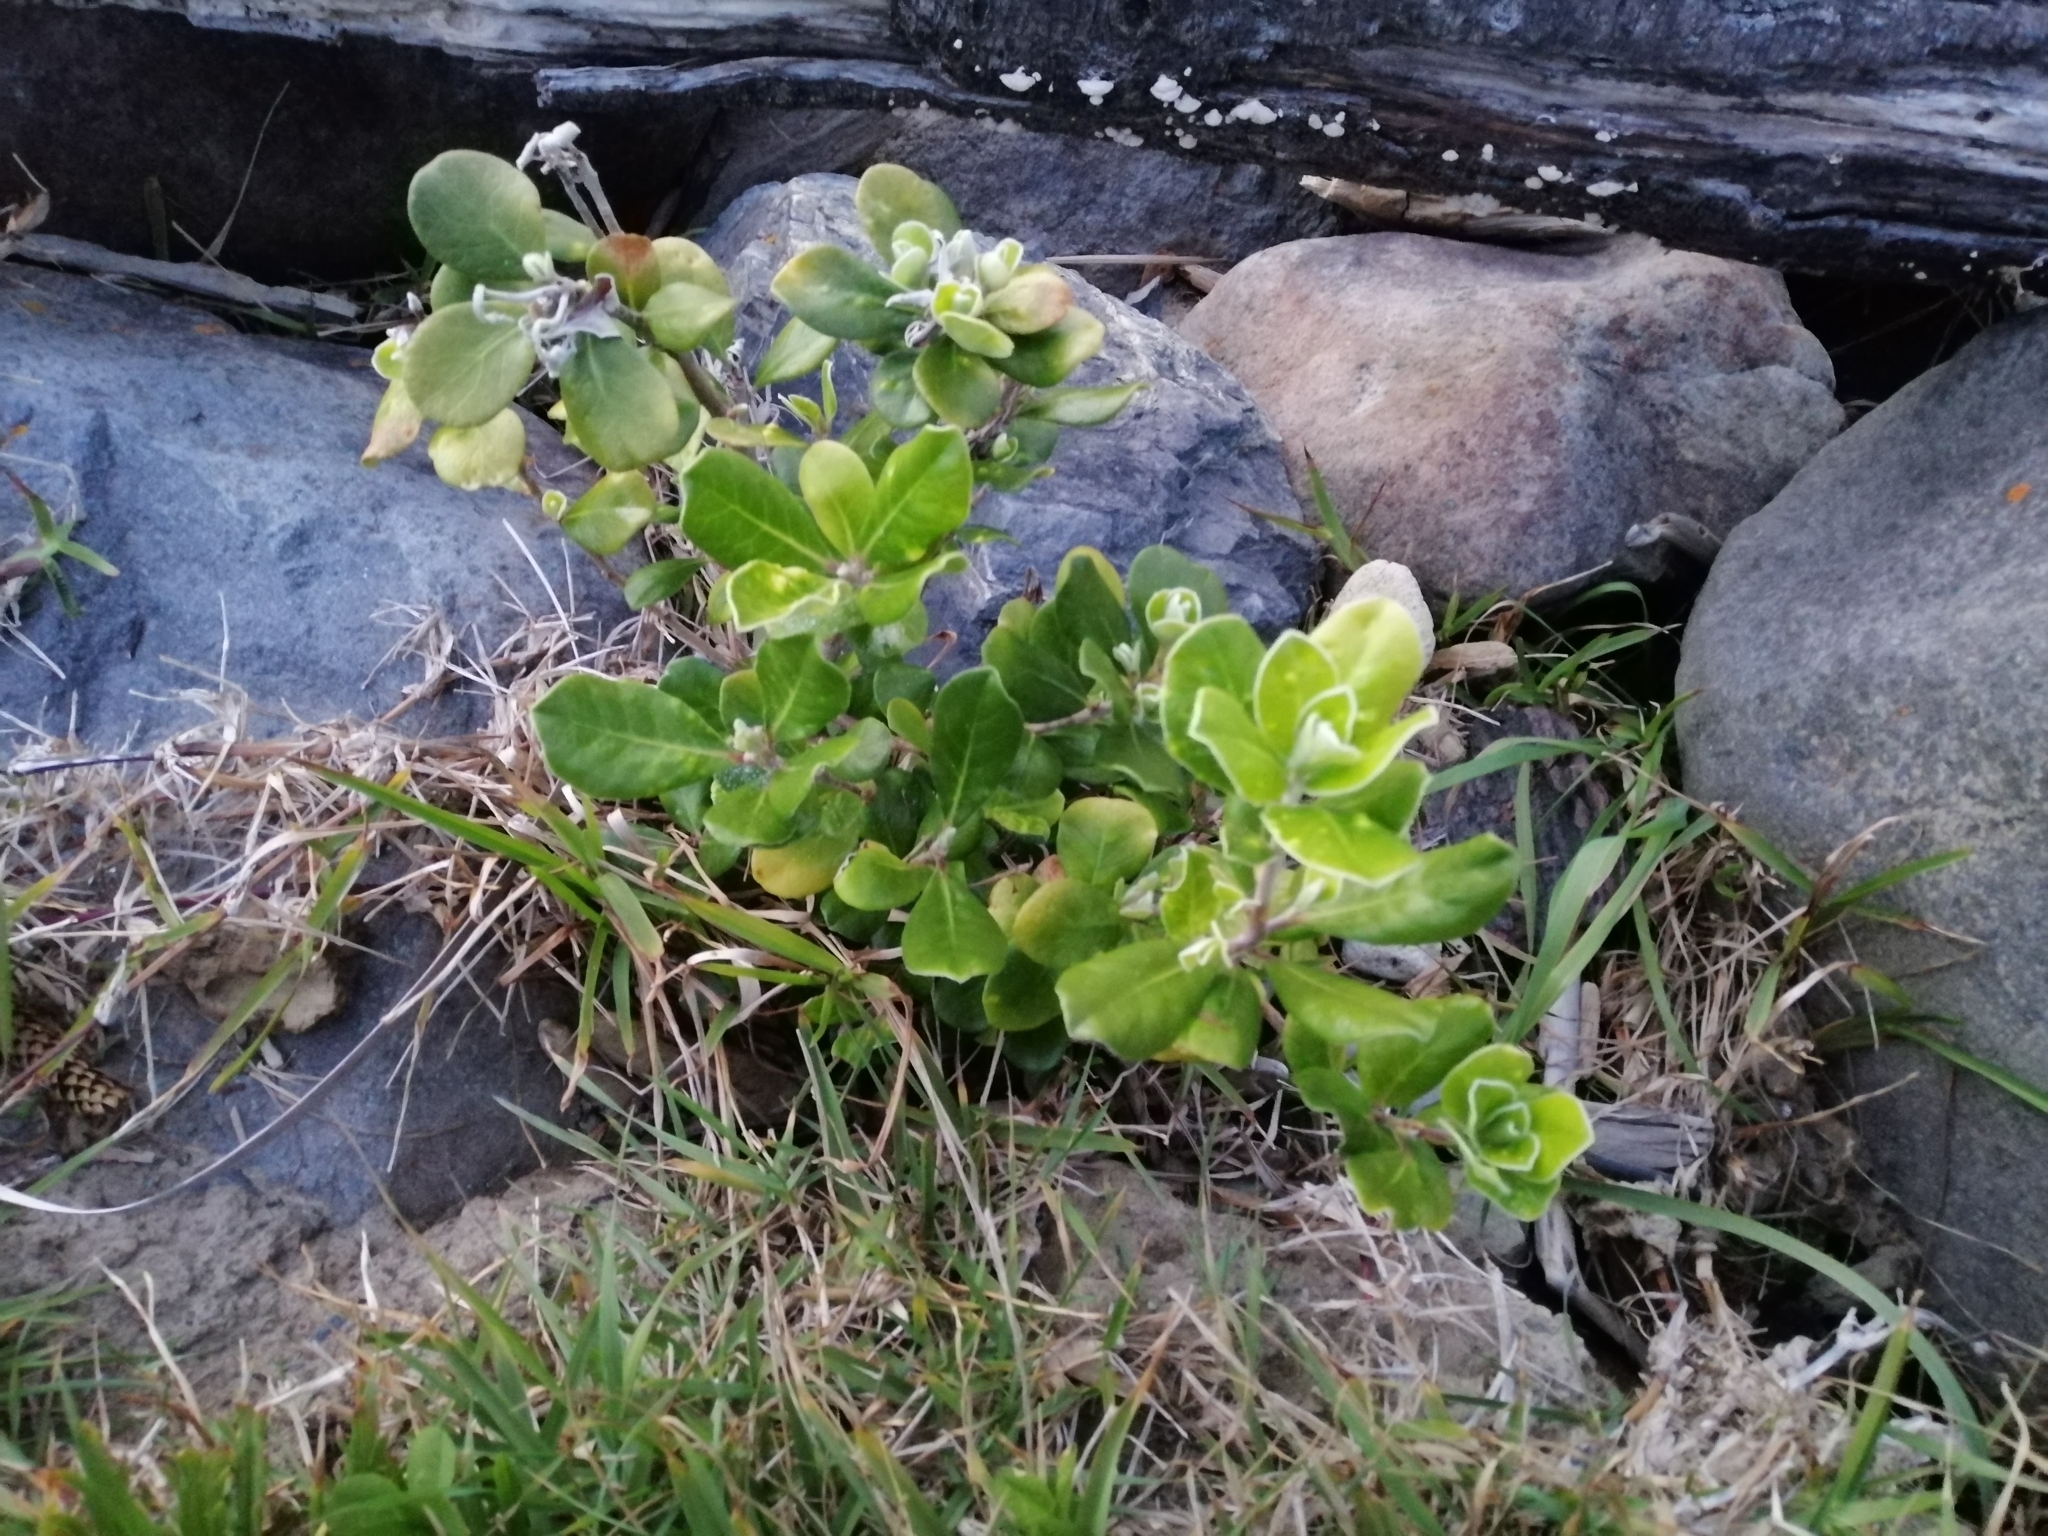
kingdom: Plantae
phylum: Tracheophyta
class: Magnoliopsida
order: Apiales
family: Pittosporaceae
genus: Pittosporum
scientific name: Pittosporum crassifolium
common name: Karo
